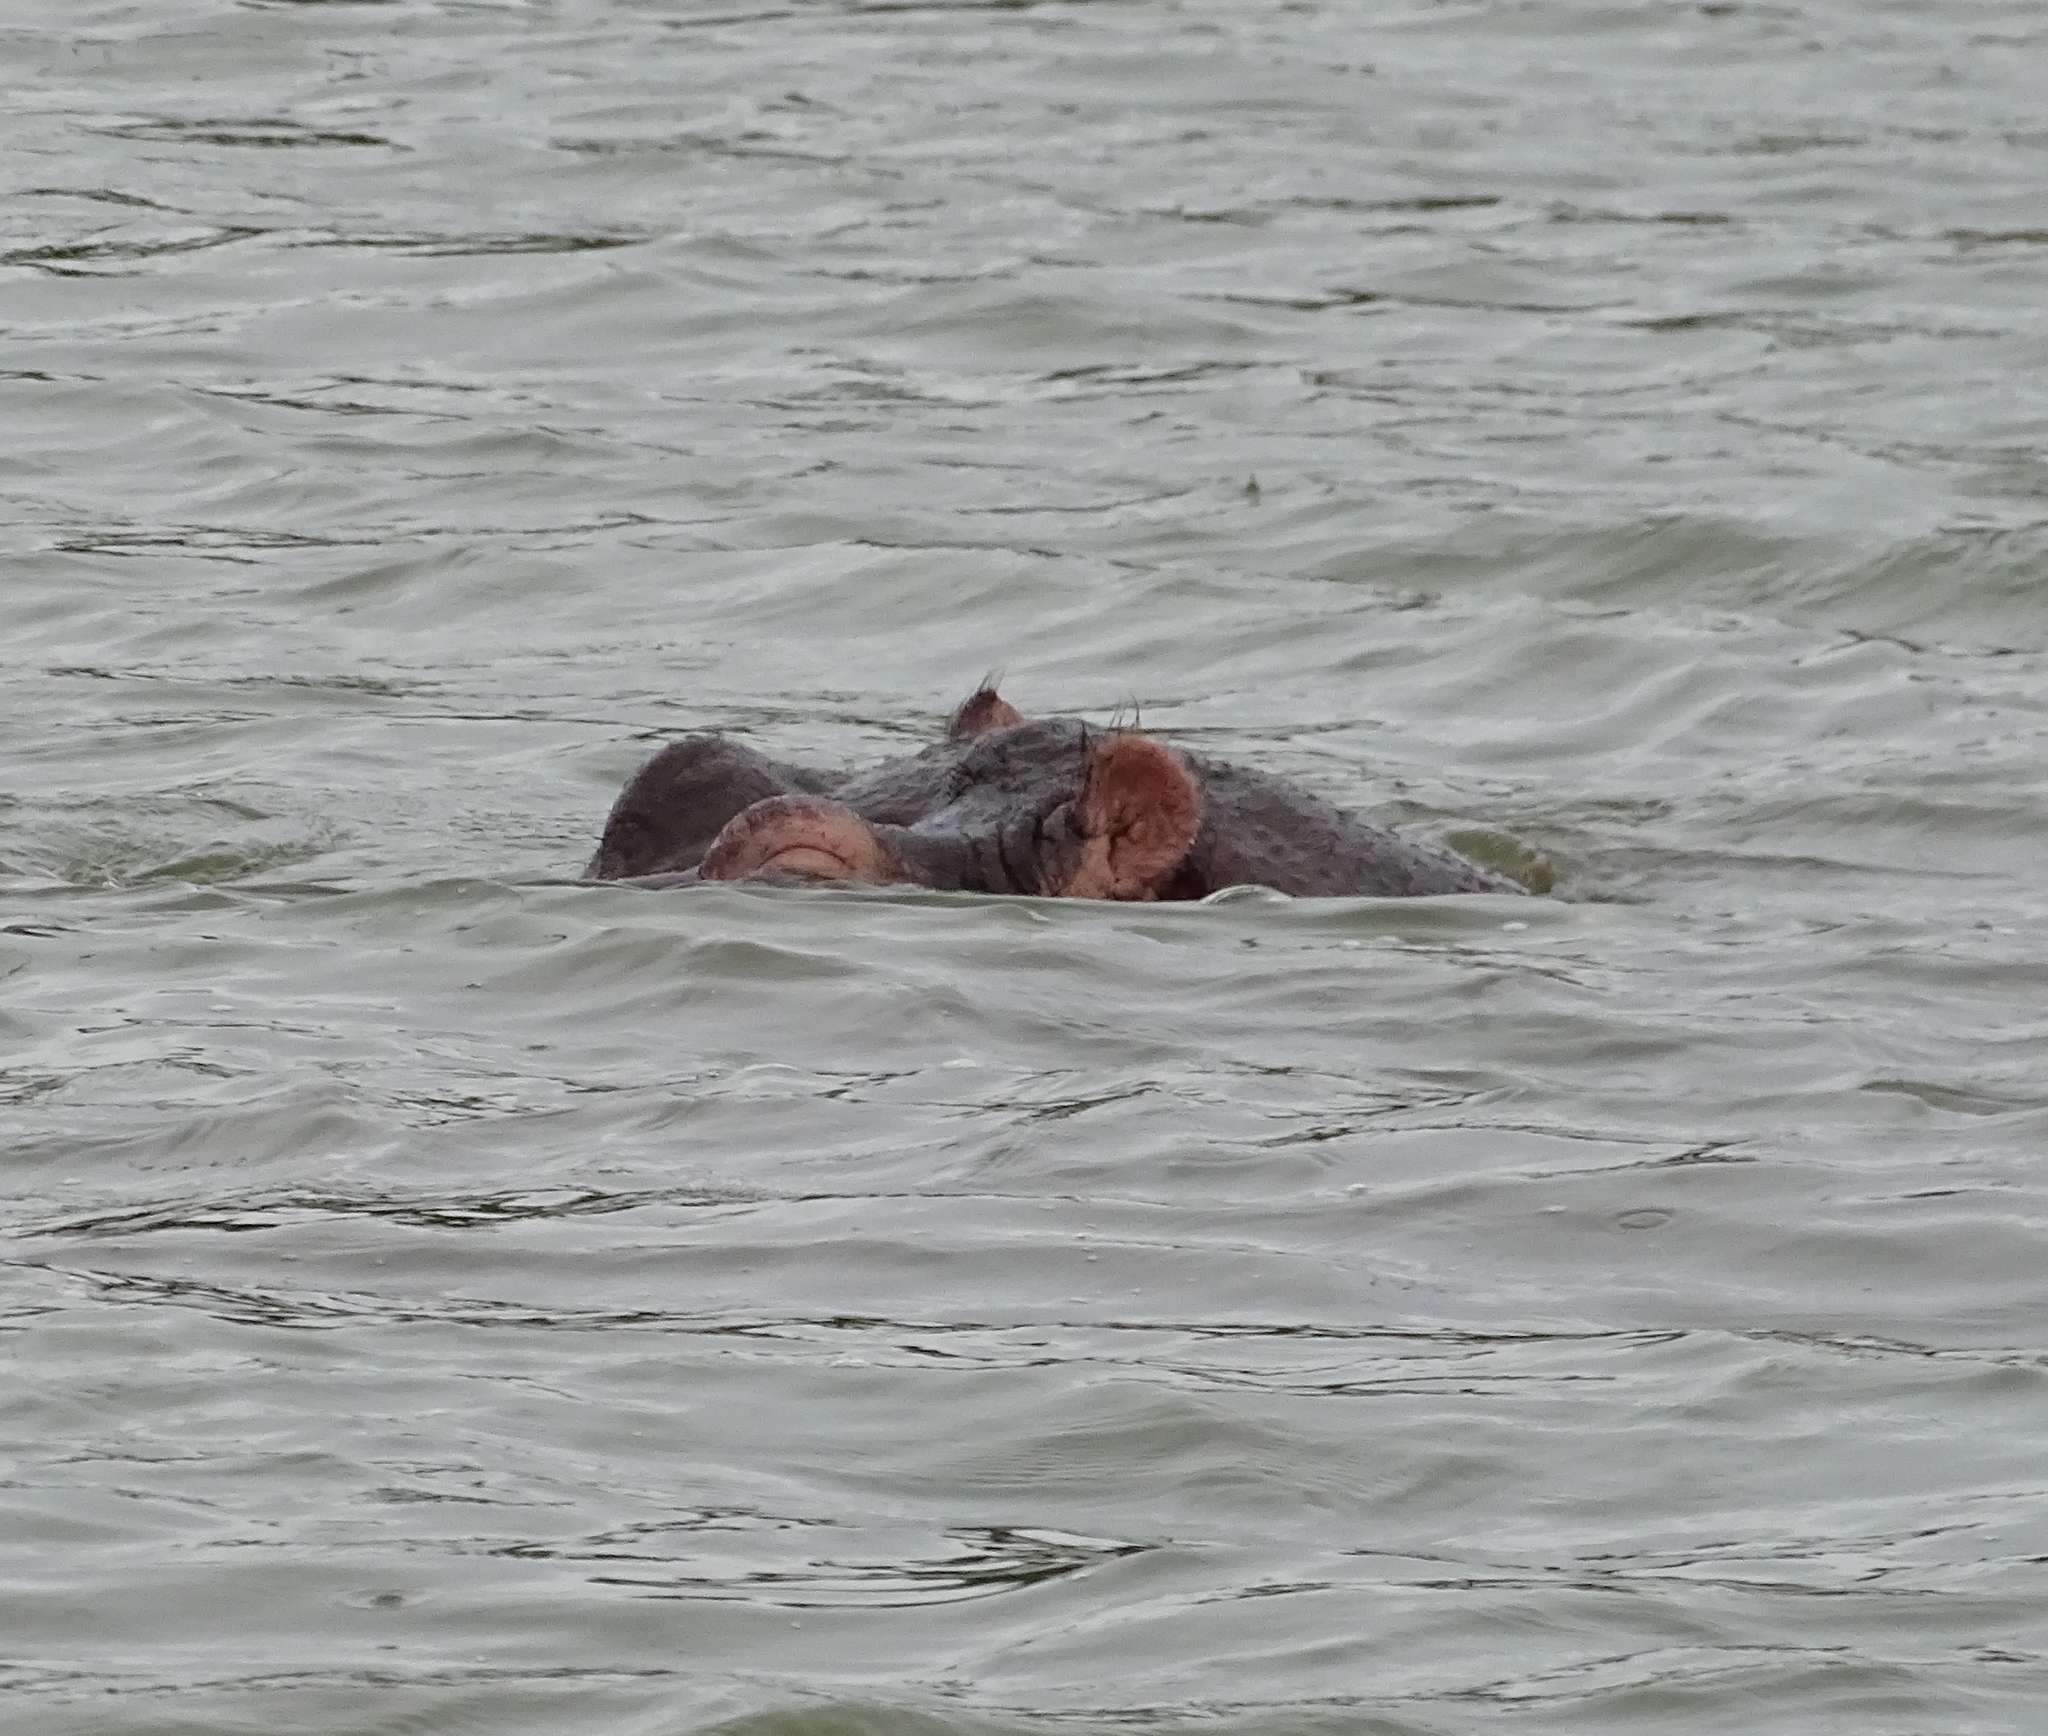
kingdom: Animalia
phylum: Chordata
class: Mammalia
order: Artiodactyla
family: Hippopotamidae
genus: Hippopotamus
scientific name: Hippopotamus amphibius
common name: Common hippopotamus
